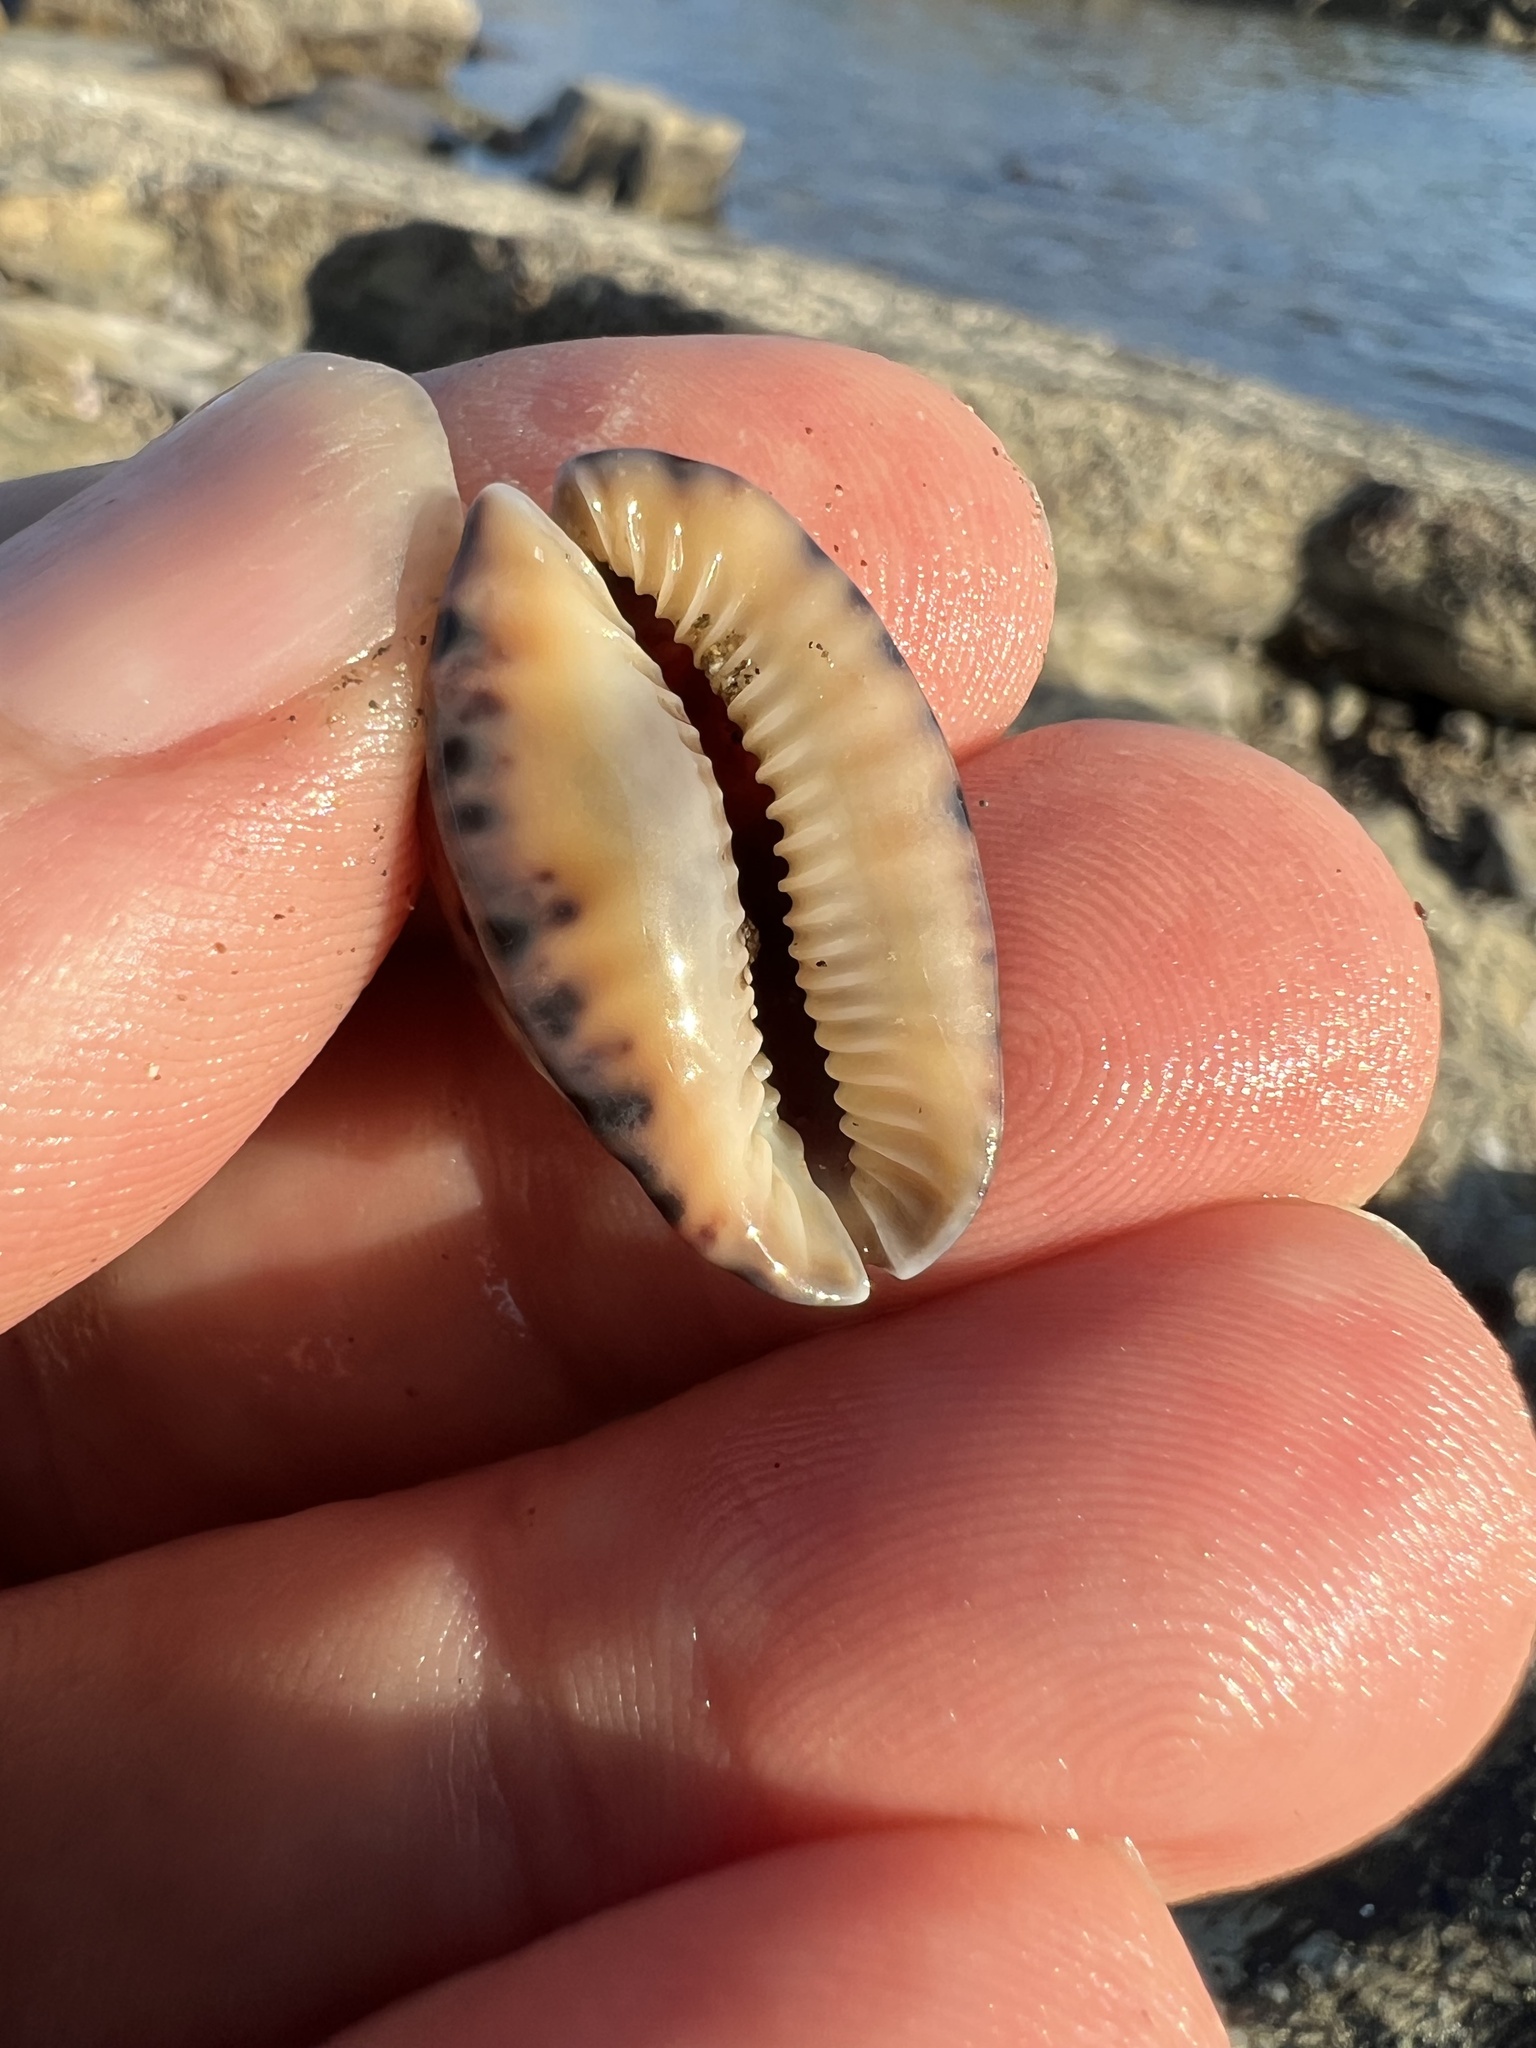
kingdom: Animalia
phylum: Mollusca
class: Gastropoda
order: Littorinimorpha
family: Cypraeidae
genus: Pseudozonaria
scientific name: Pseudozonaria arabicula
